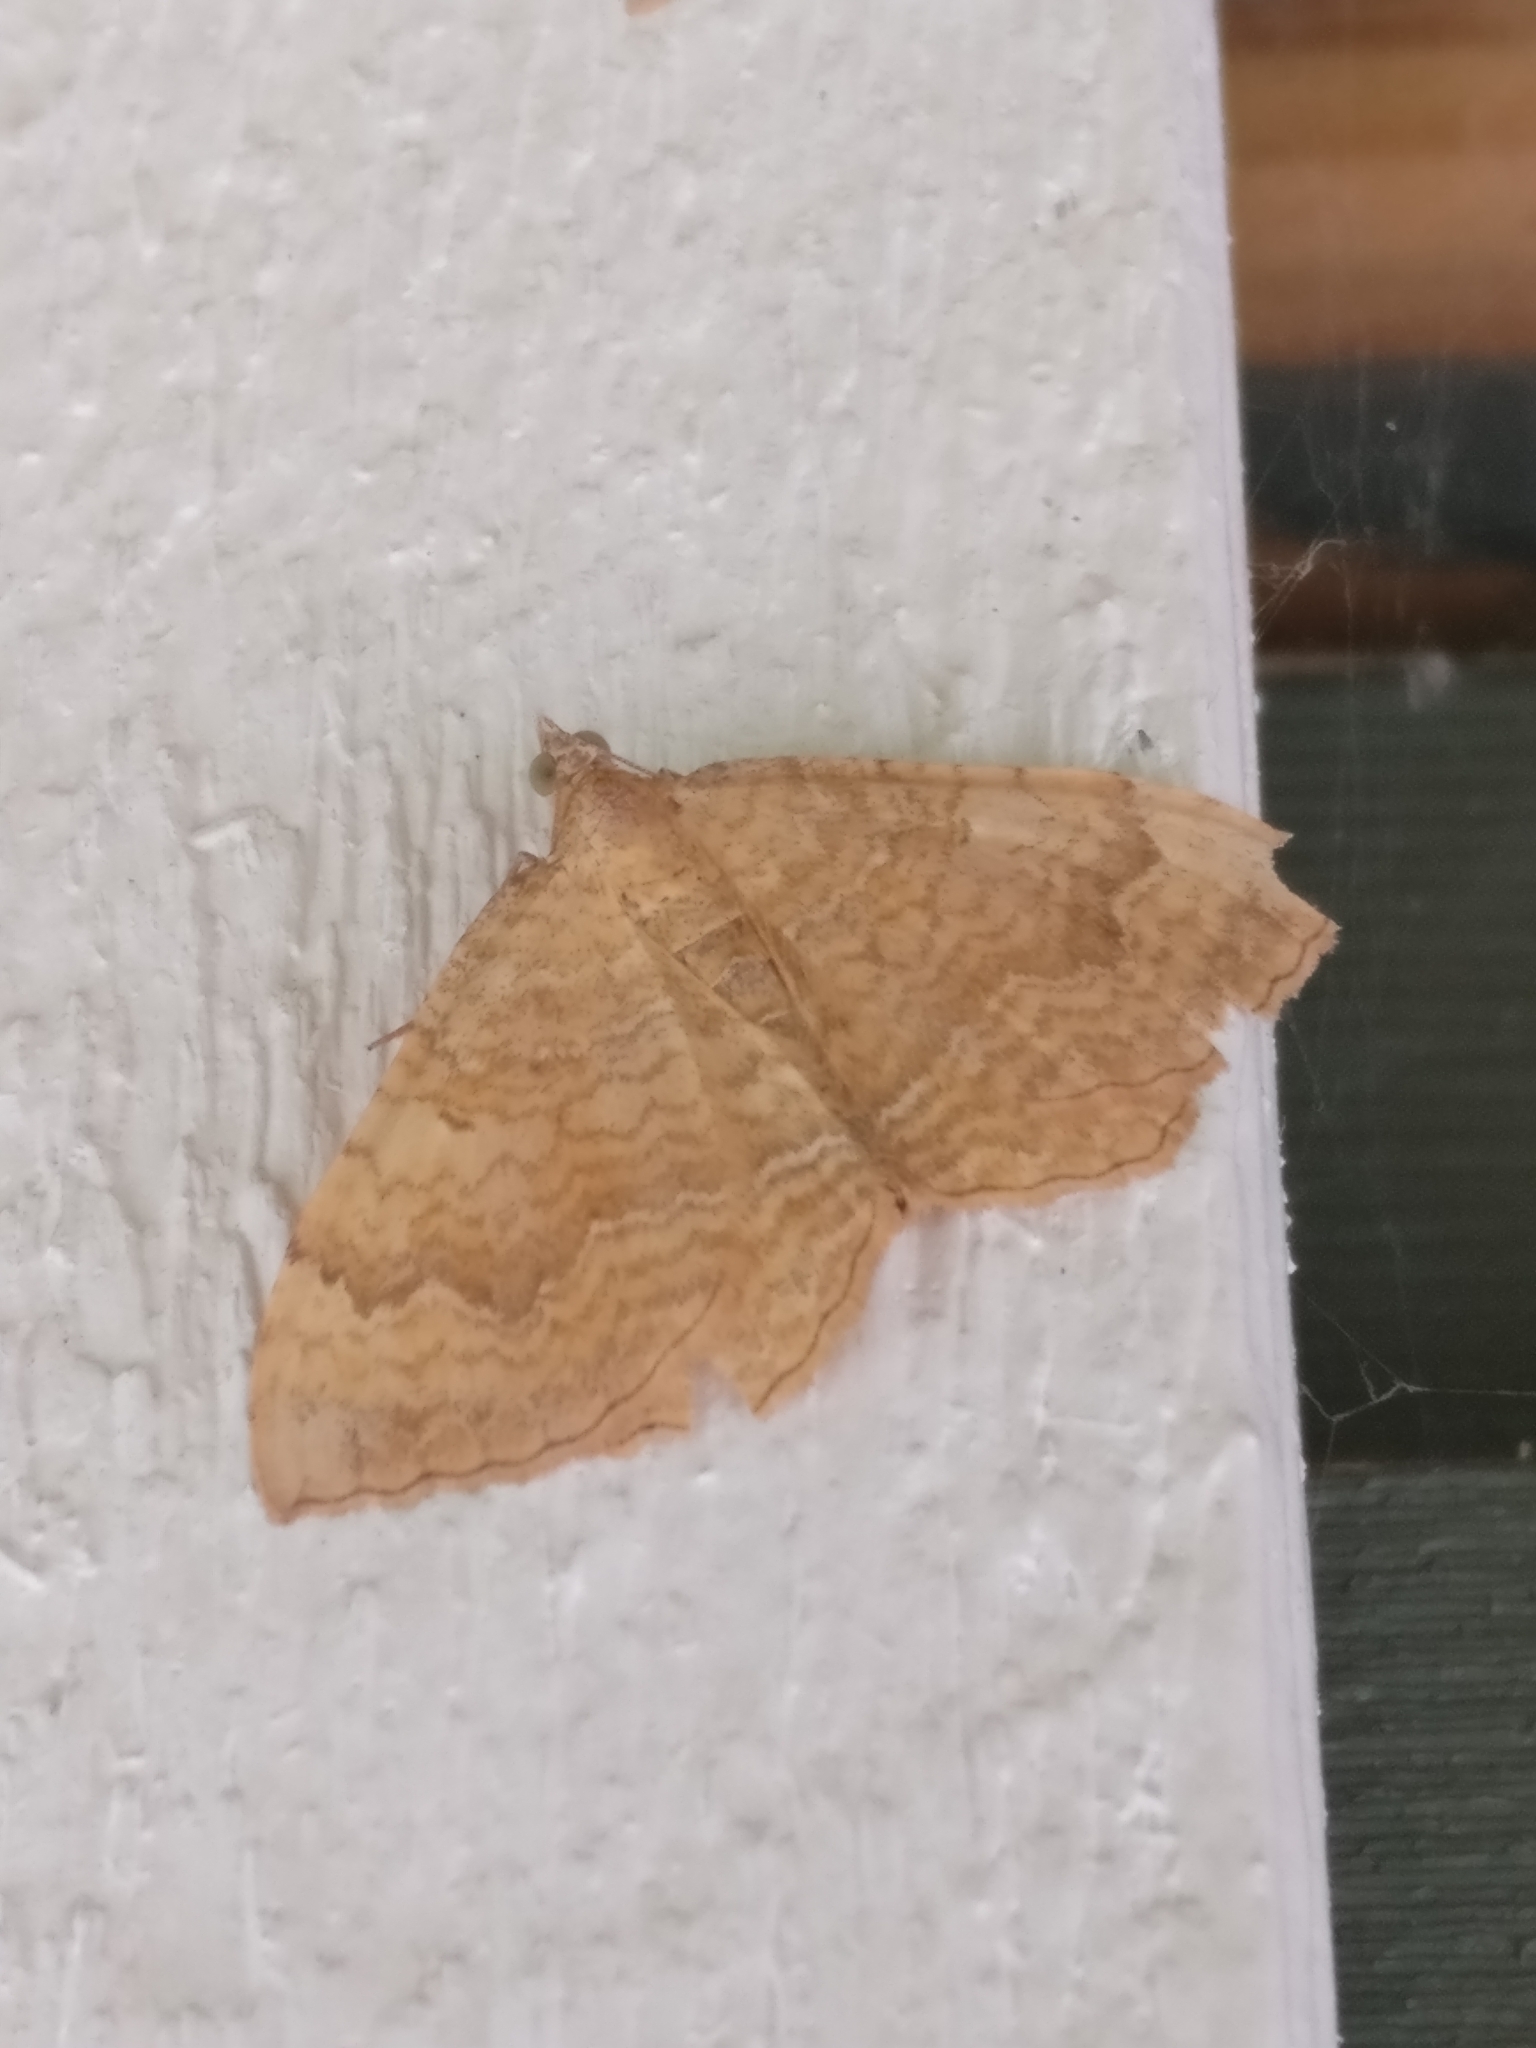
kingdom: Animalia
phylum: Arthropoda
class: Insecta
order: Lepidoptera
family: Geometridae
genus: Camptogramma
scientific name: Camptogramma bilineata
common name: Yellow shell
